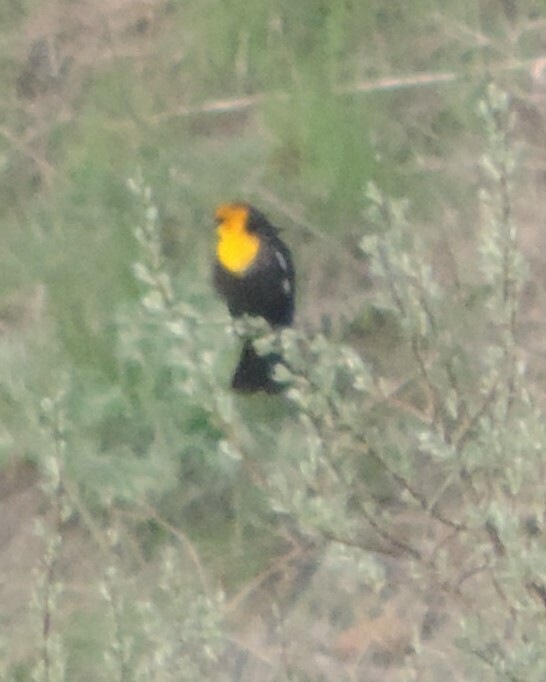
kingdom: Animalia
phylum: Chordata
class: Aves
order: Passeriformes
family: Icteridae
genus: Xanthocephalus
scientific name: Xanthocephalus xanthocephalus
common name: Yellow-headed blackbird
